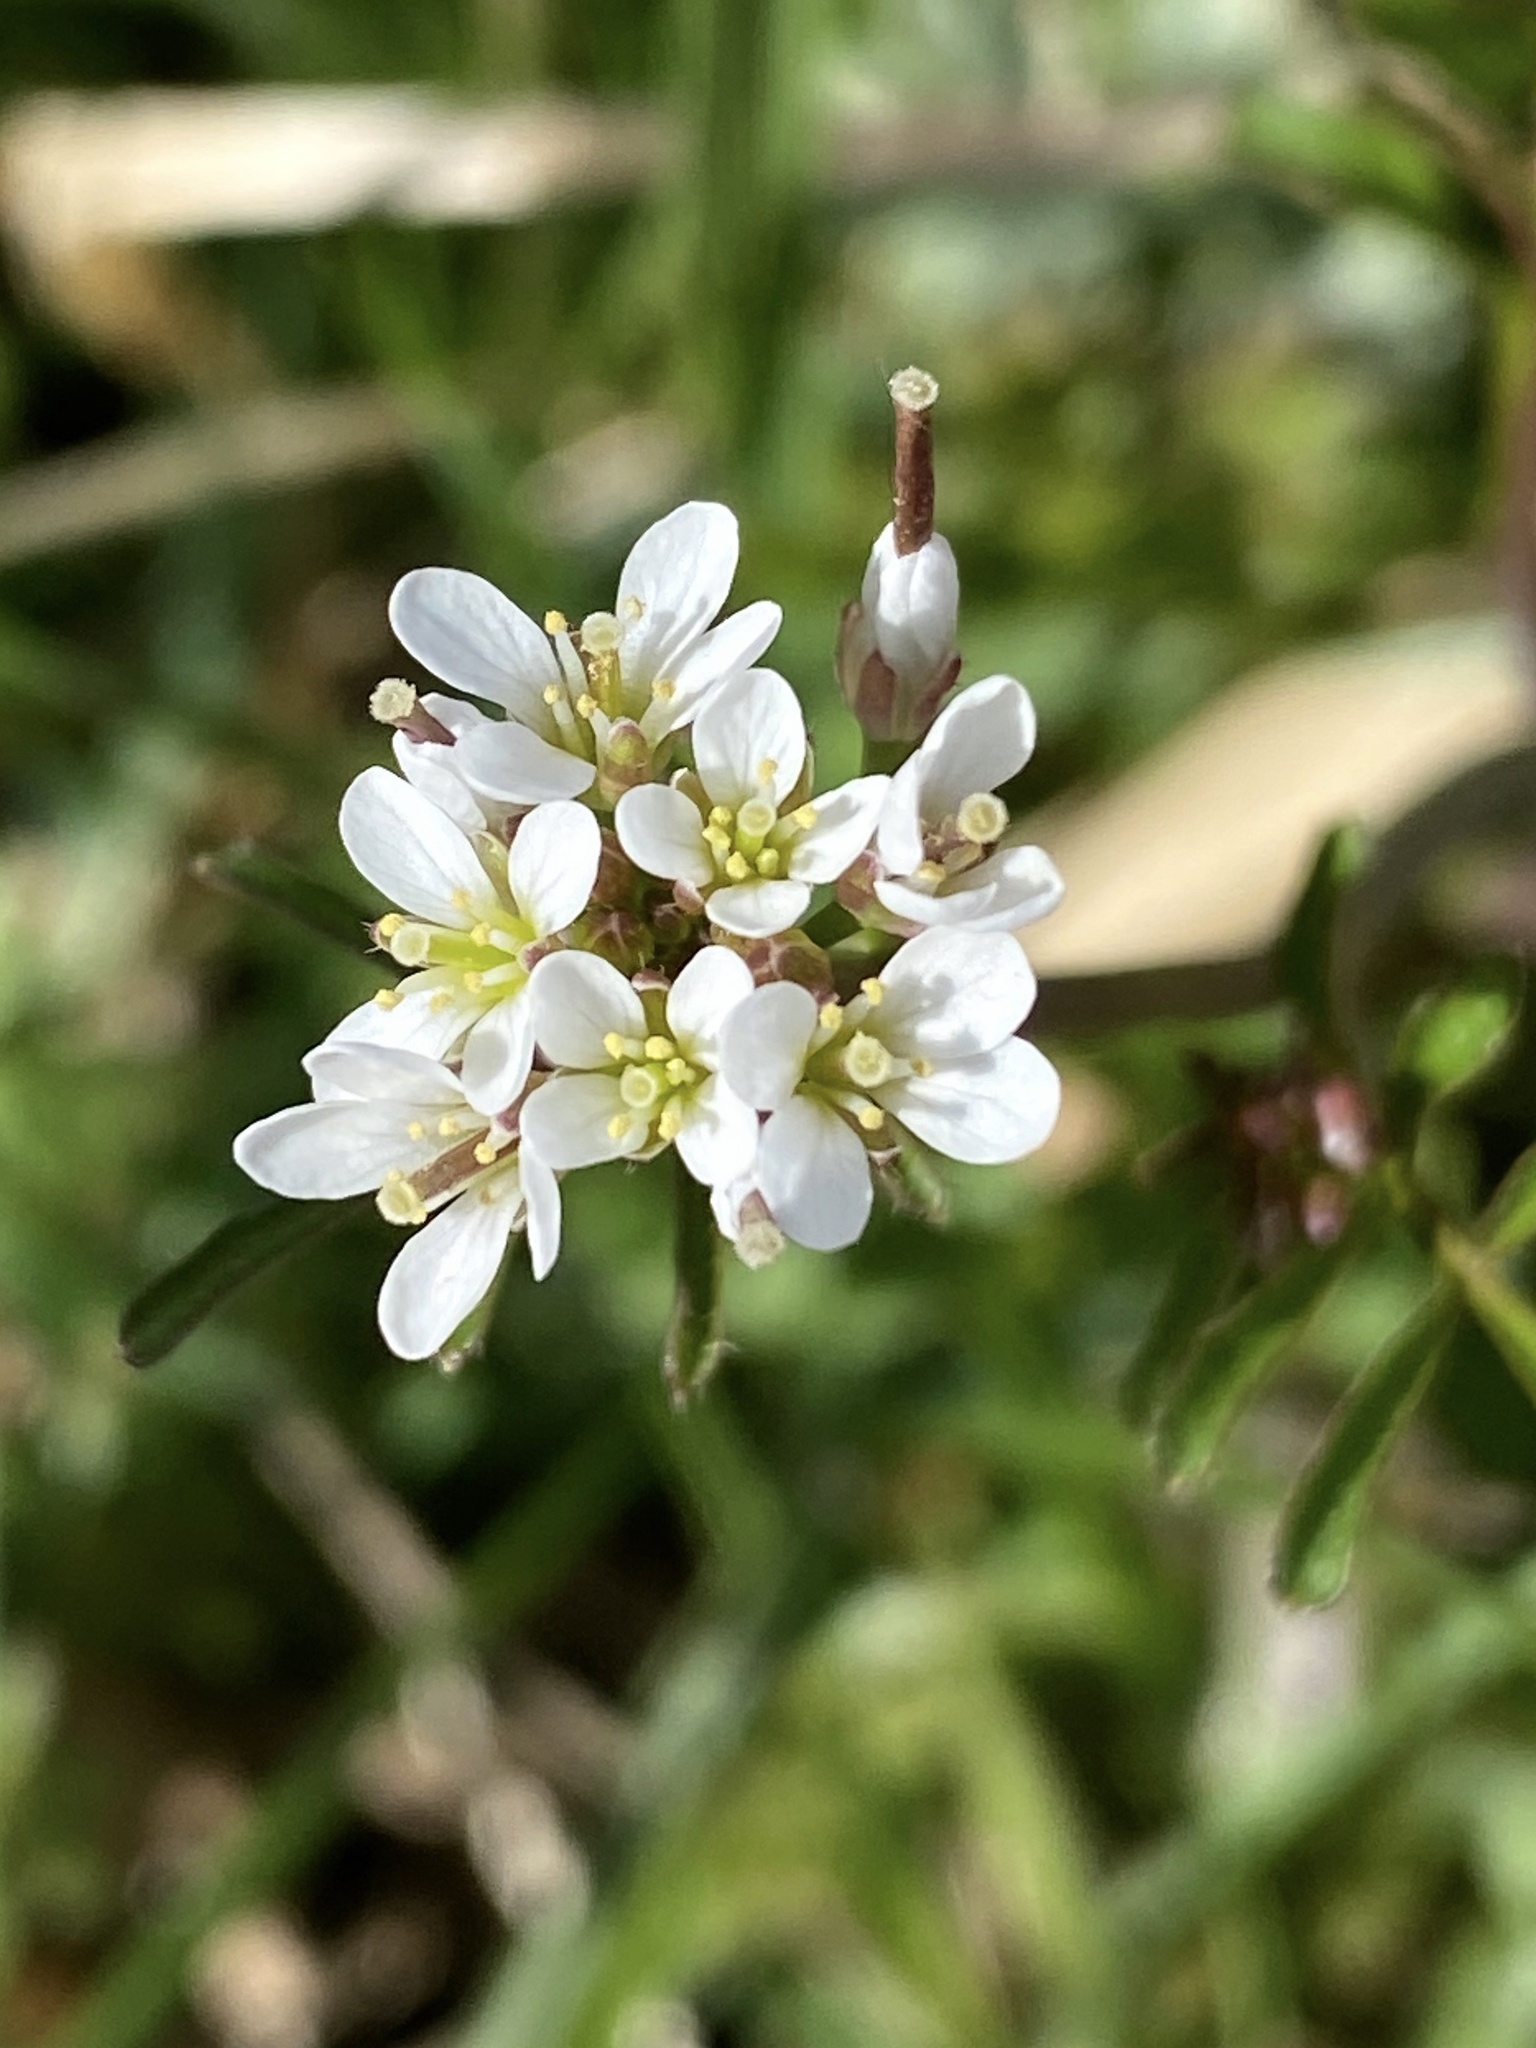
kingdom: Plantae
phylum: Tracheophyta
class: Magnoliopsida
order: Brassicales
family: Brassicaceae
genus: Cardamine
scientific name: Cardamine hirsuta
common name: Hairy bittercress
